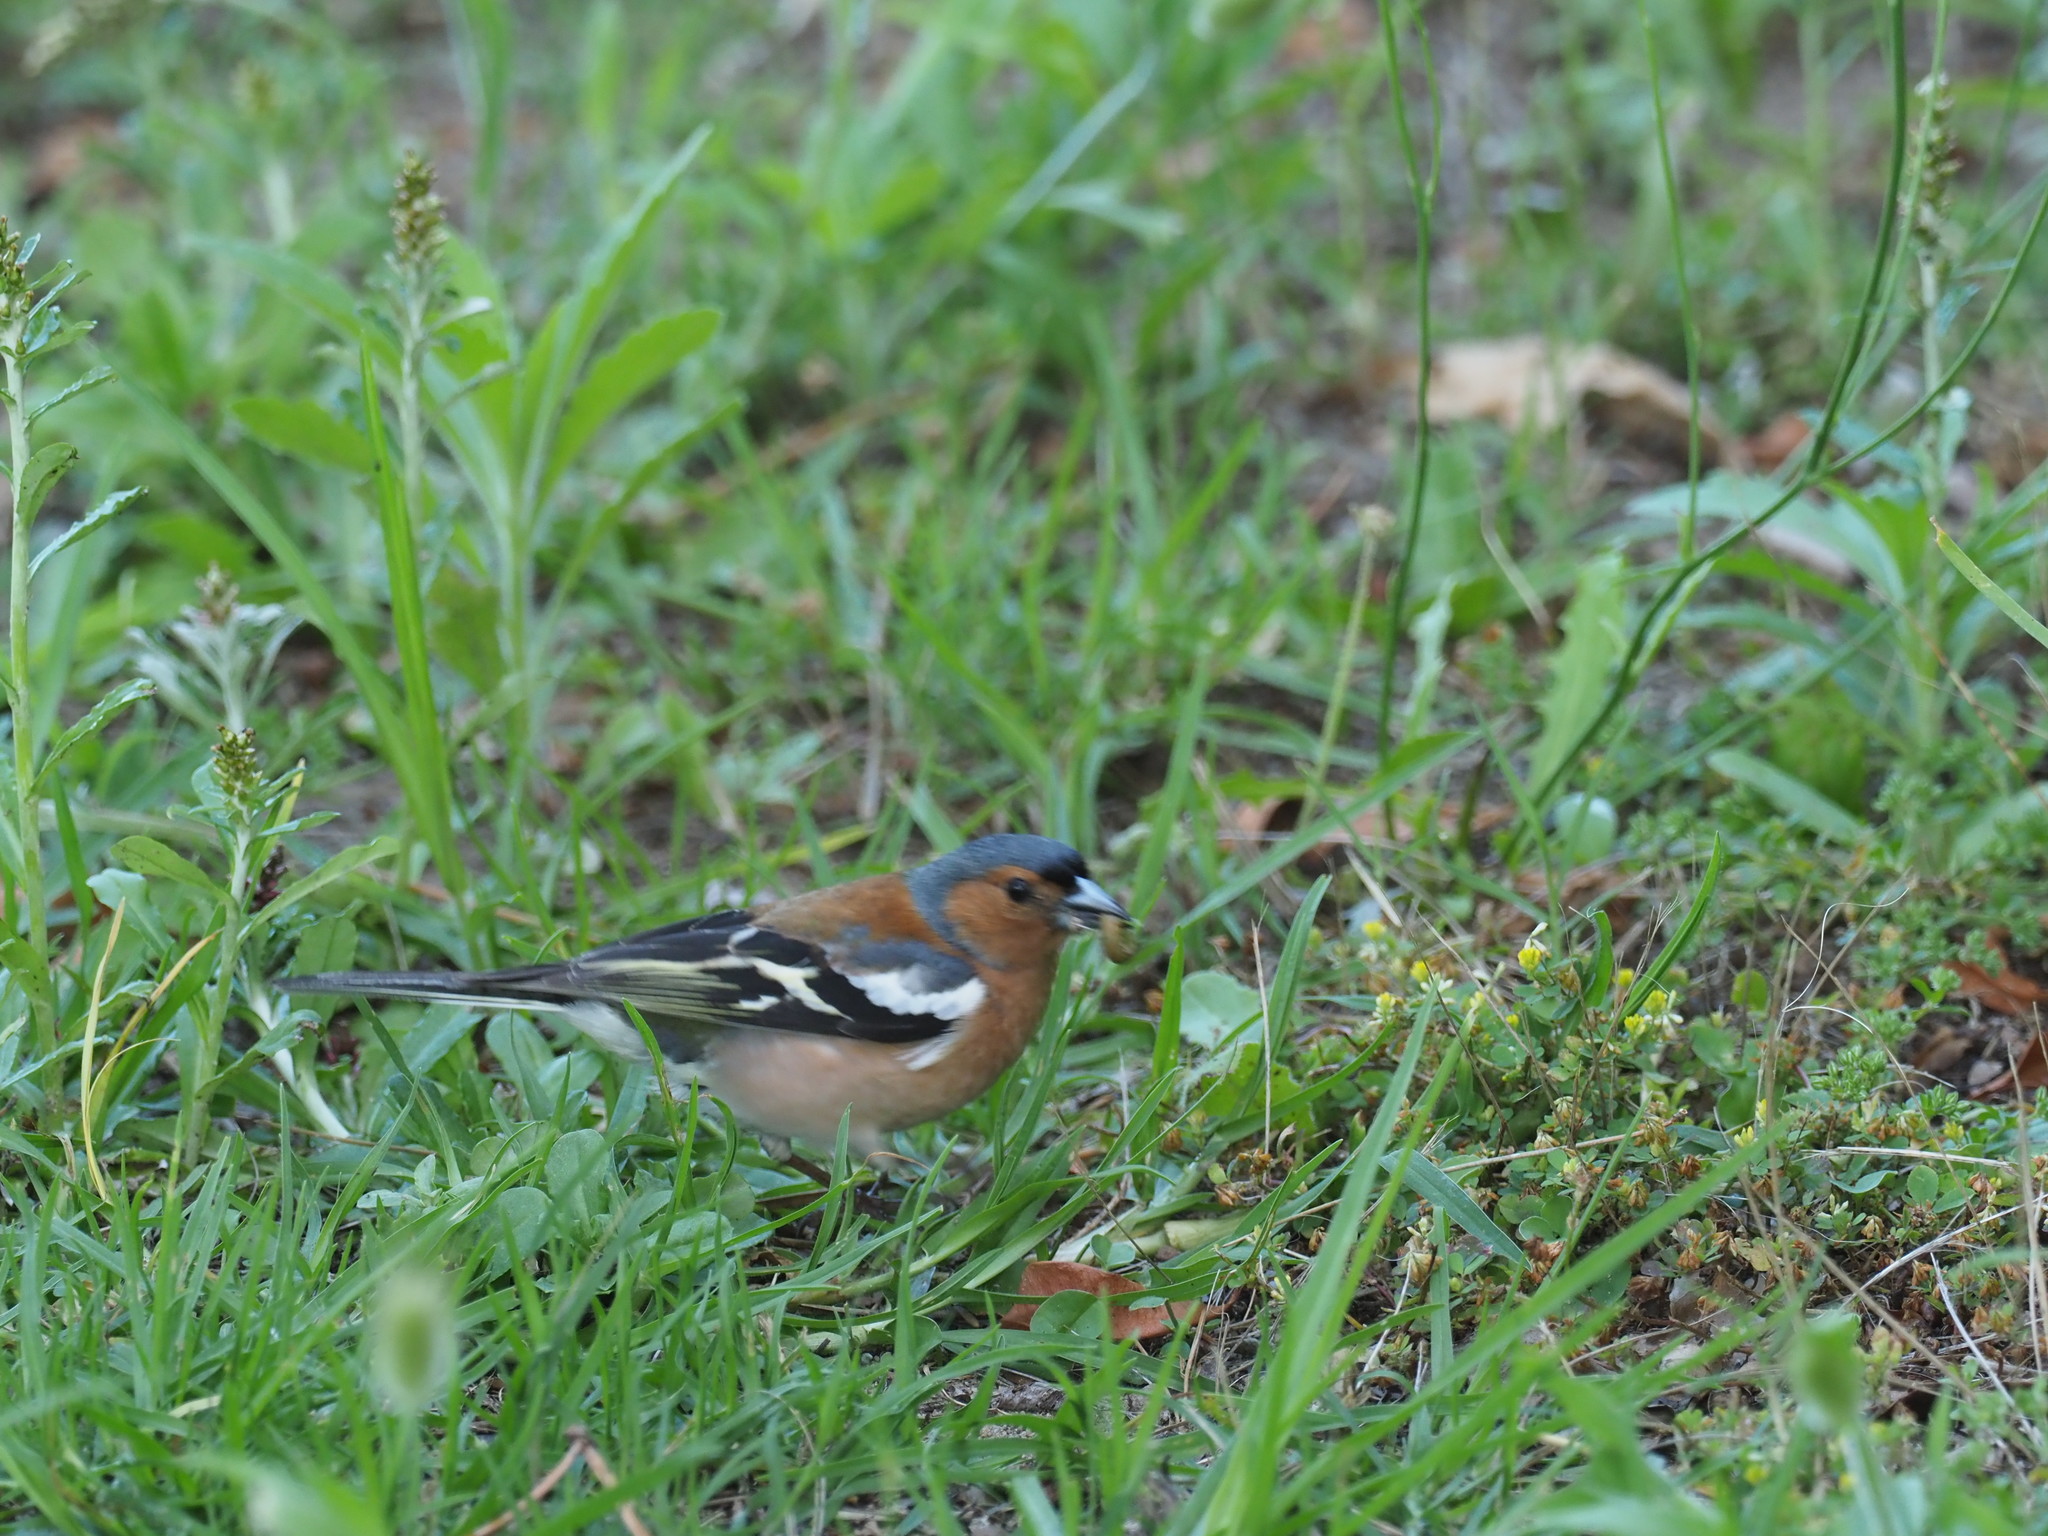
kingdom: Animalia
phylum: Chordata
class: Aves
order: Passeriformes
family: Fringillidae
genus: Fringilla
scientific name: Fringilla coelebs
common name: Common chaffinch
